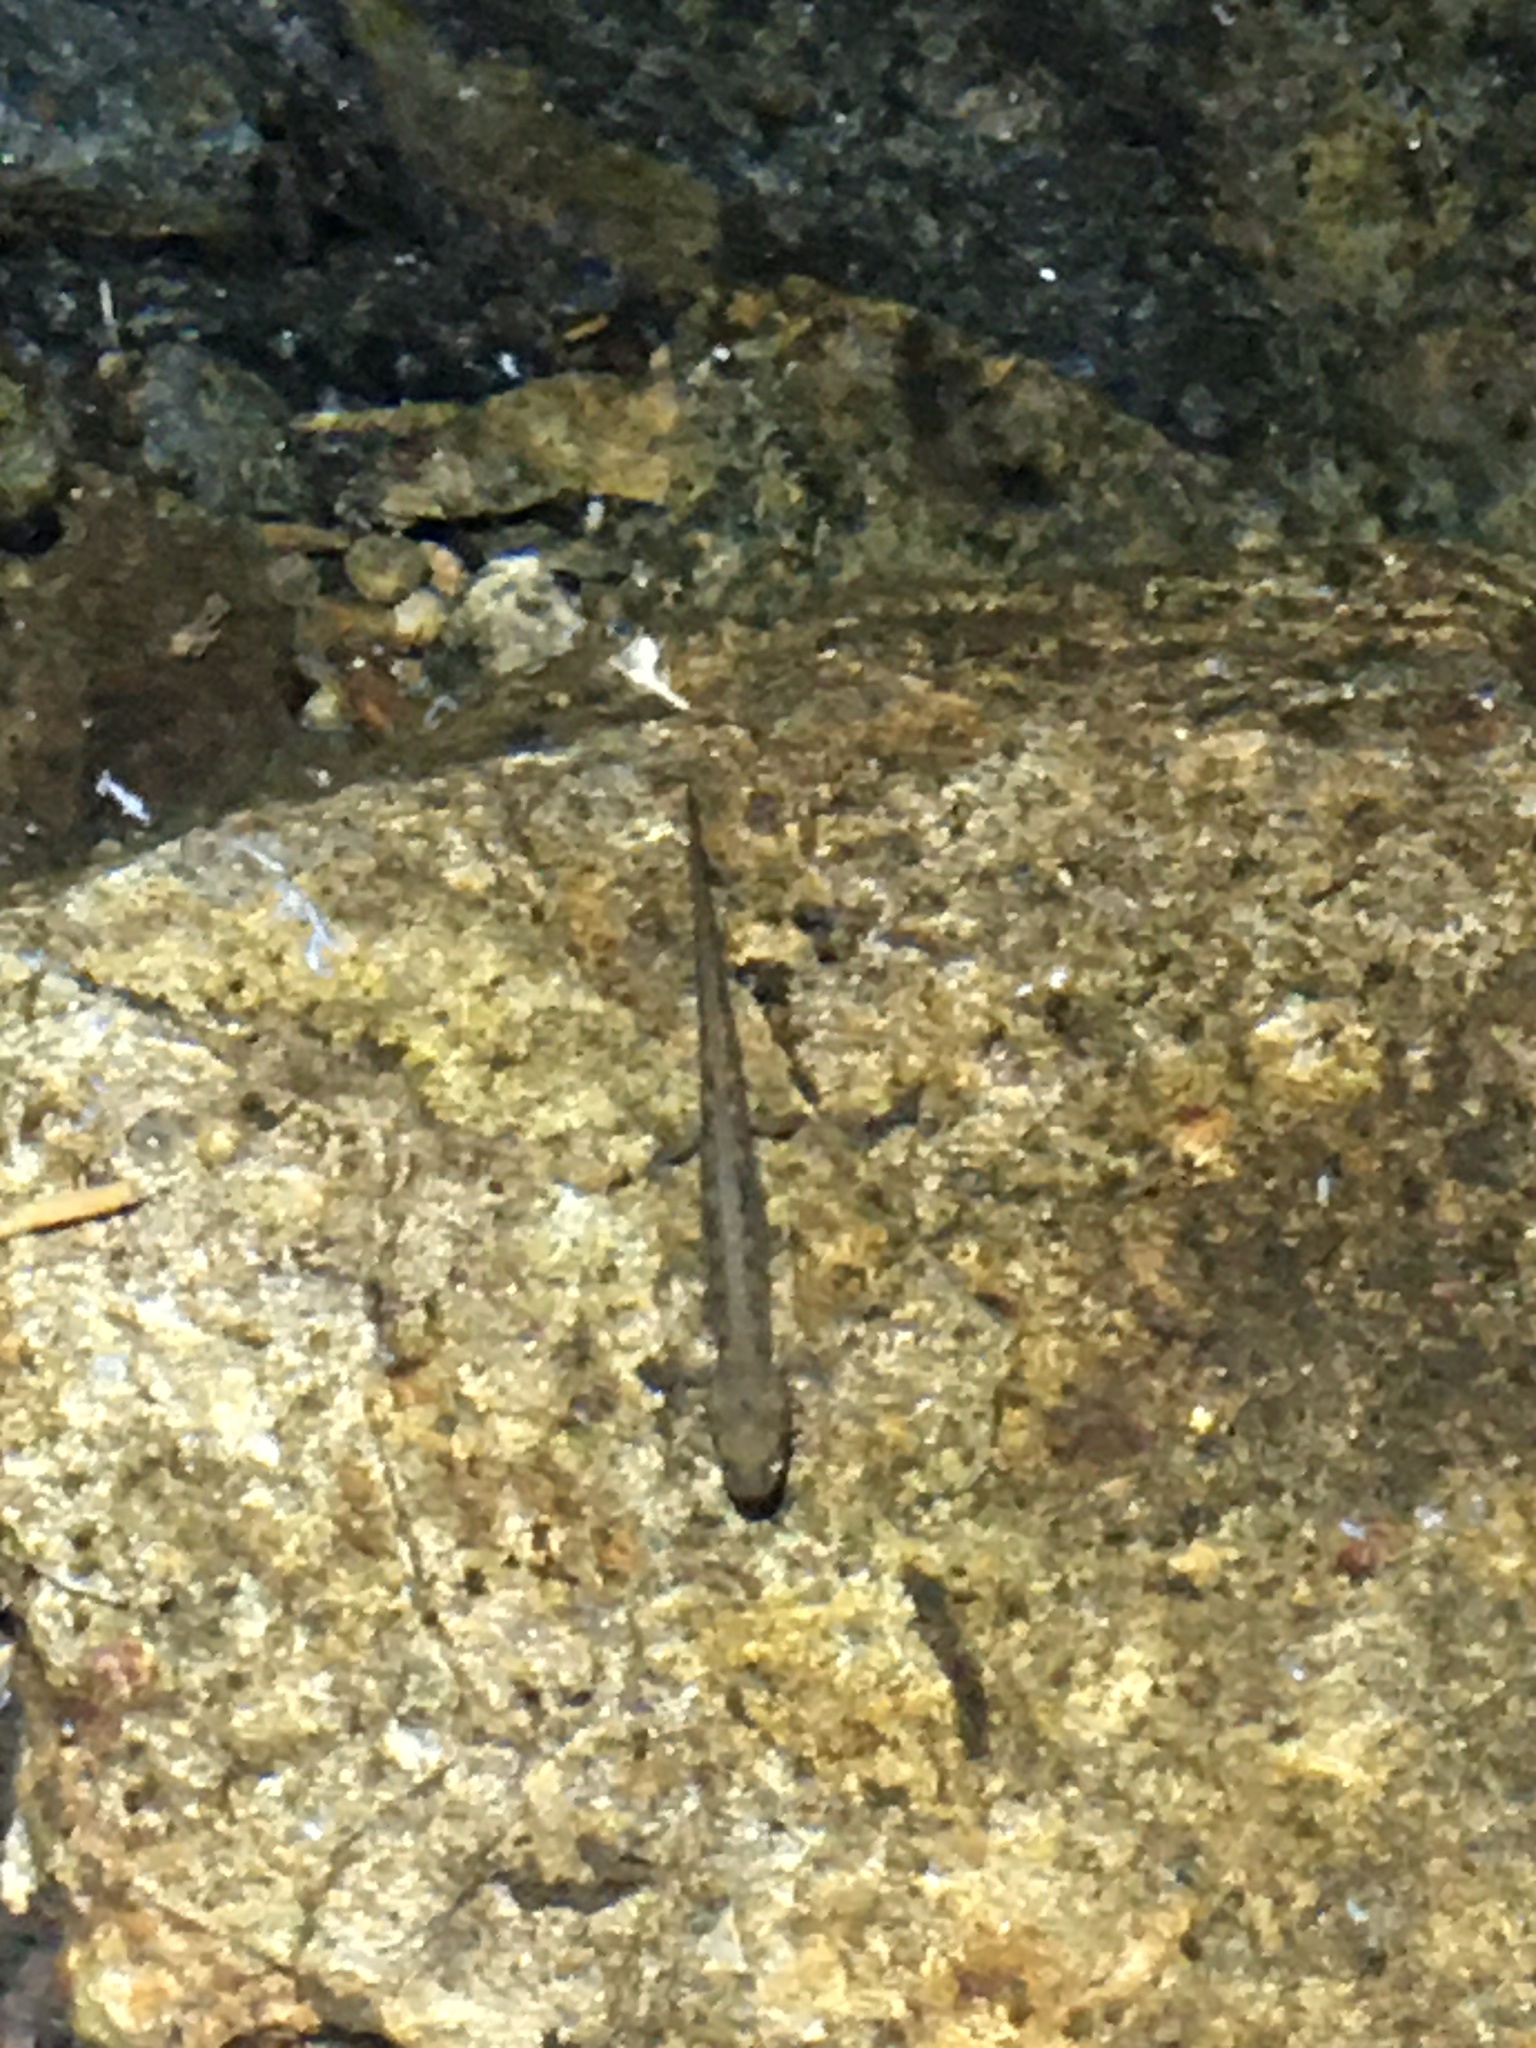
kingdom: Animalia
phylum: Chordata
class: Amphibia
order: Caudata
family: Plethodontidae
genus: Eurycea
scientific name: Eurycea bislineata
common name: Northern two-lined salamander
